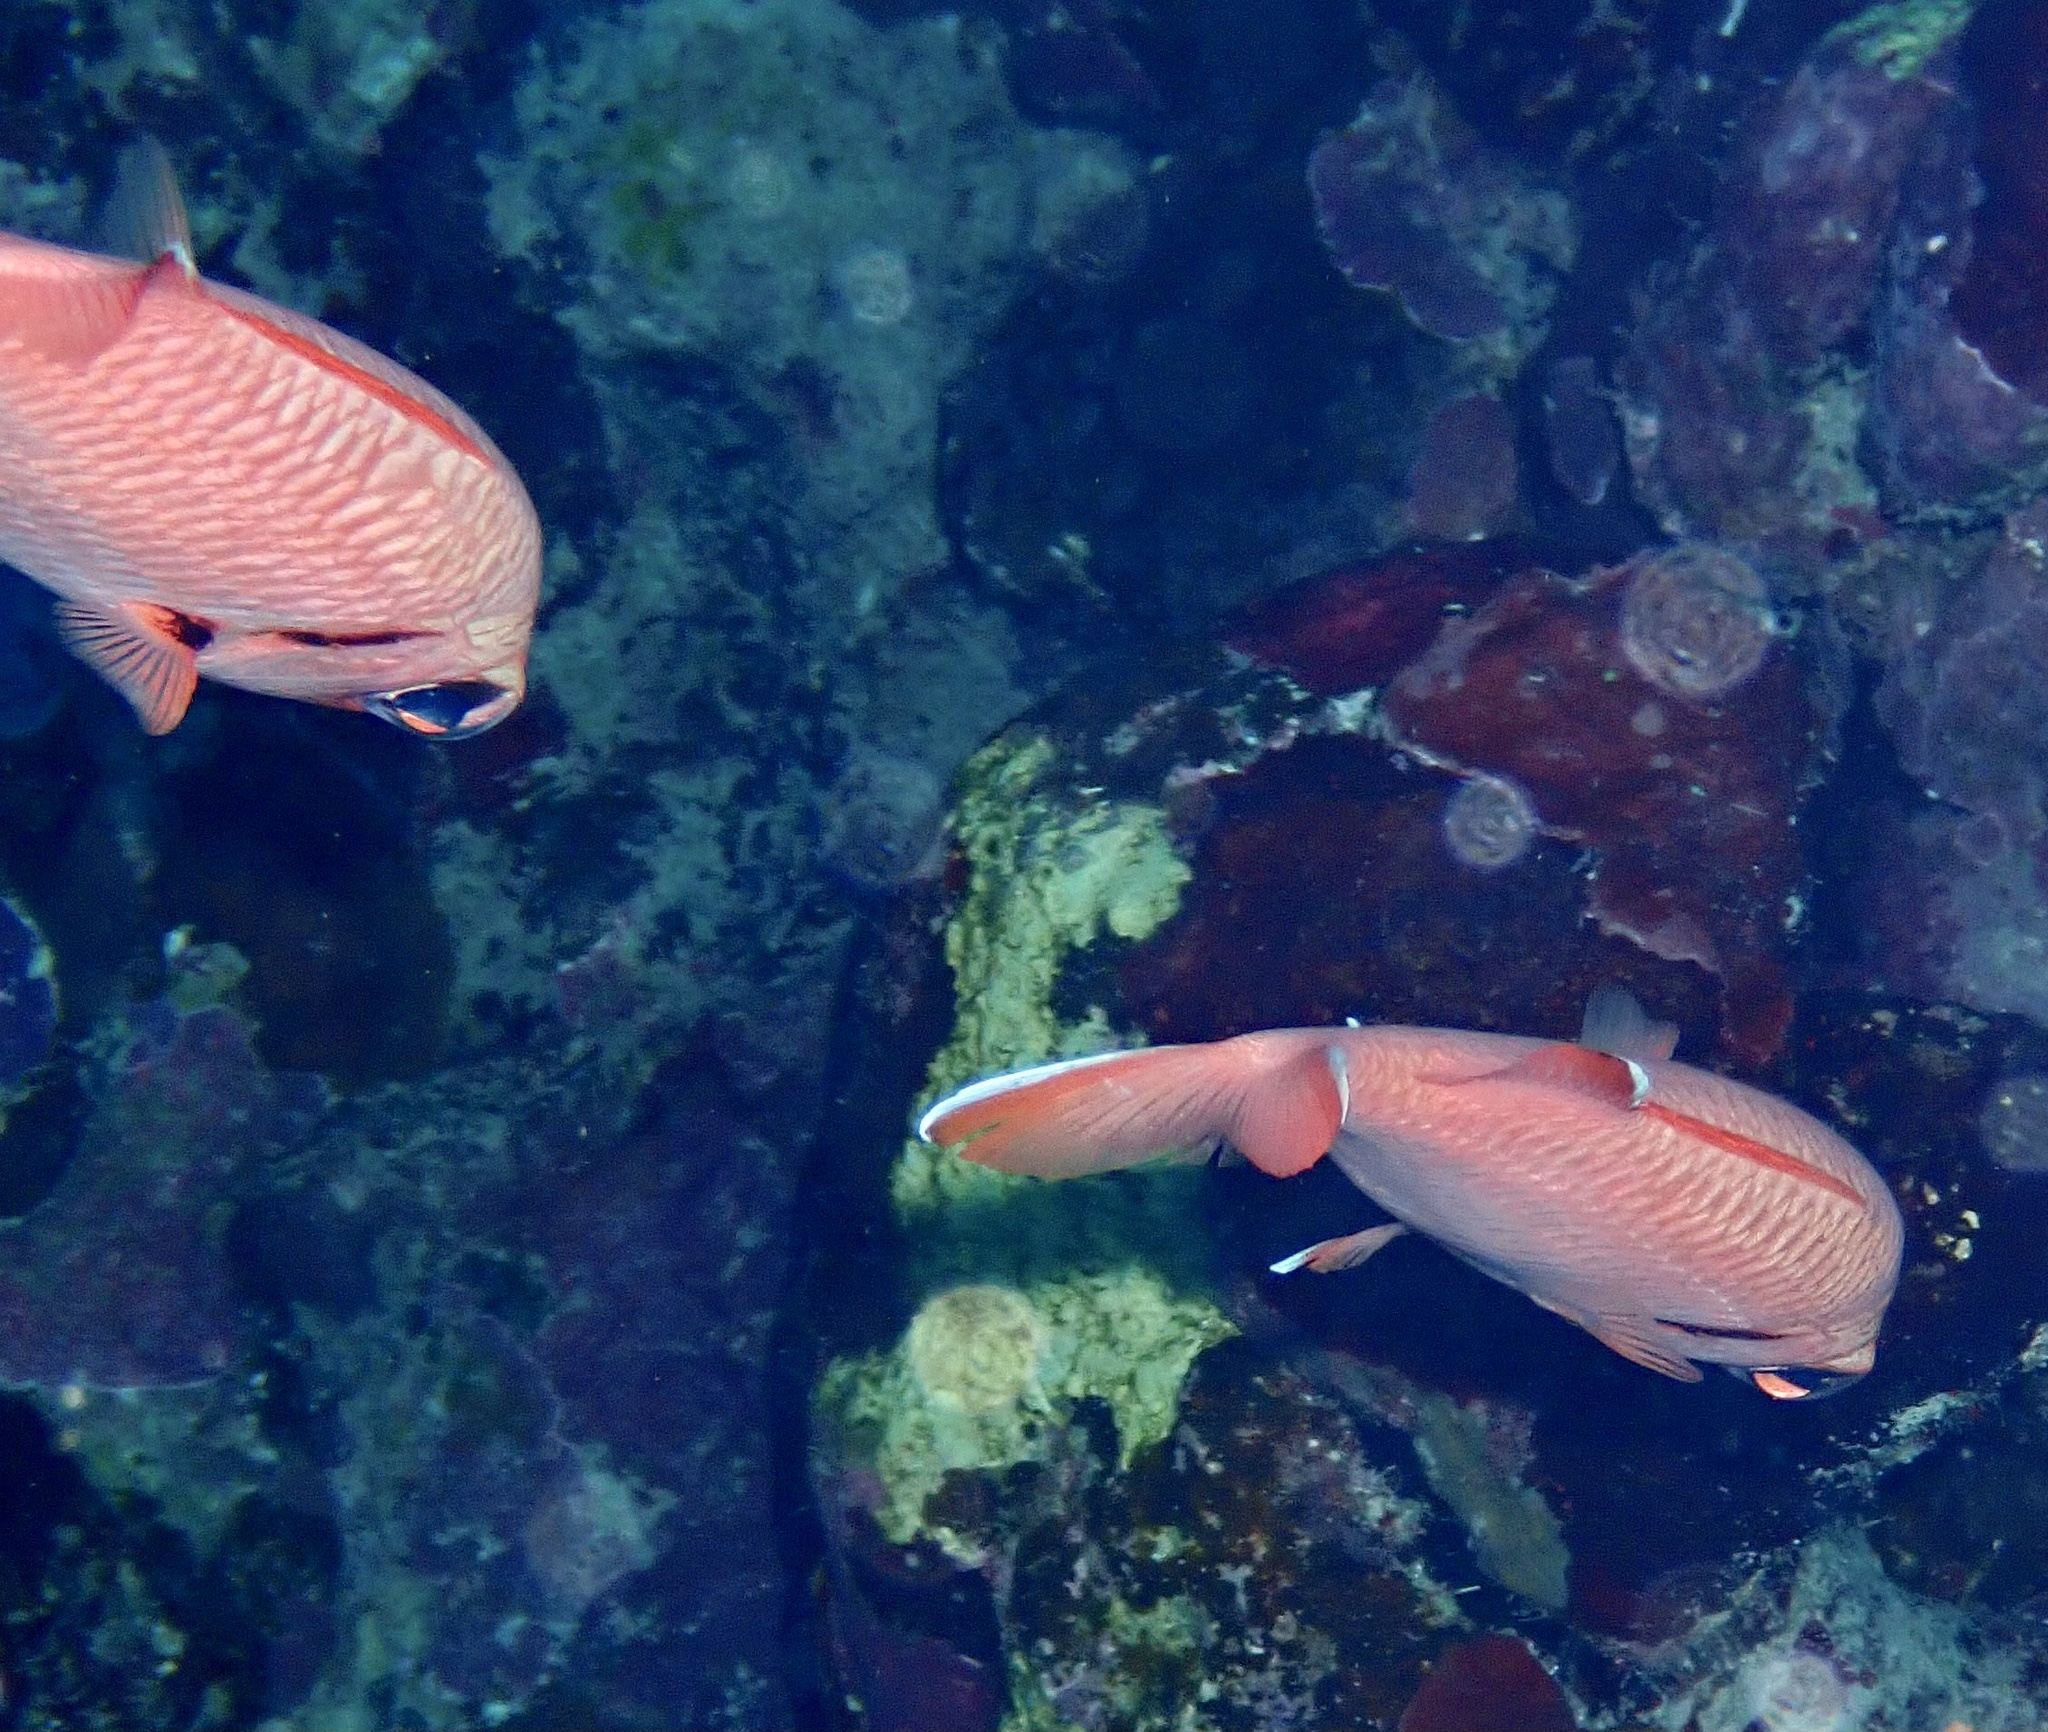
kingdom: Animalia
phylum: Chordata
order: Beryciformes
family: Holocentridae
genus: Myripristis
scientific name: Myripristis murdjan
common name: Big-eye soldierfish
